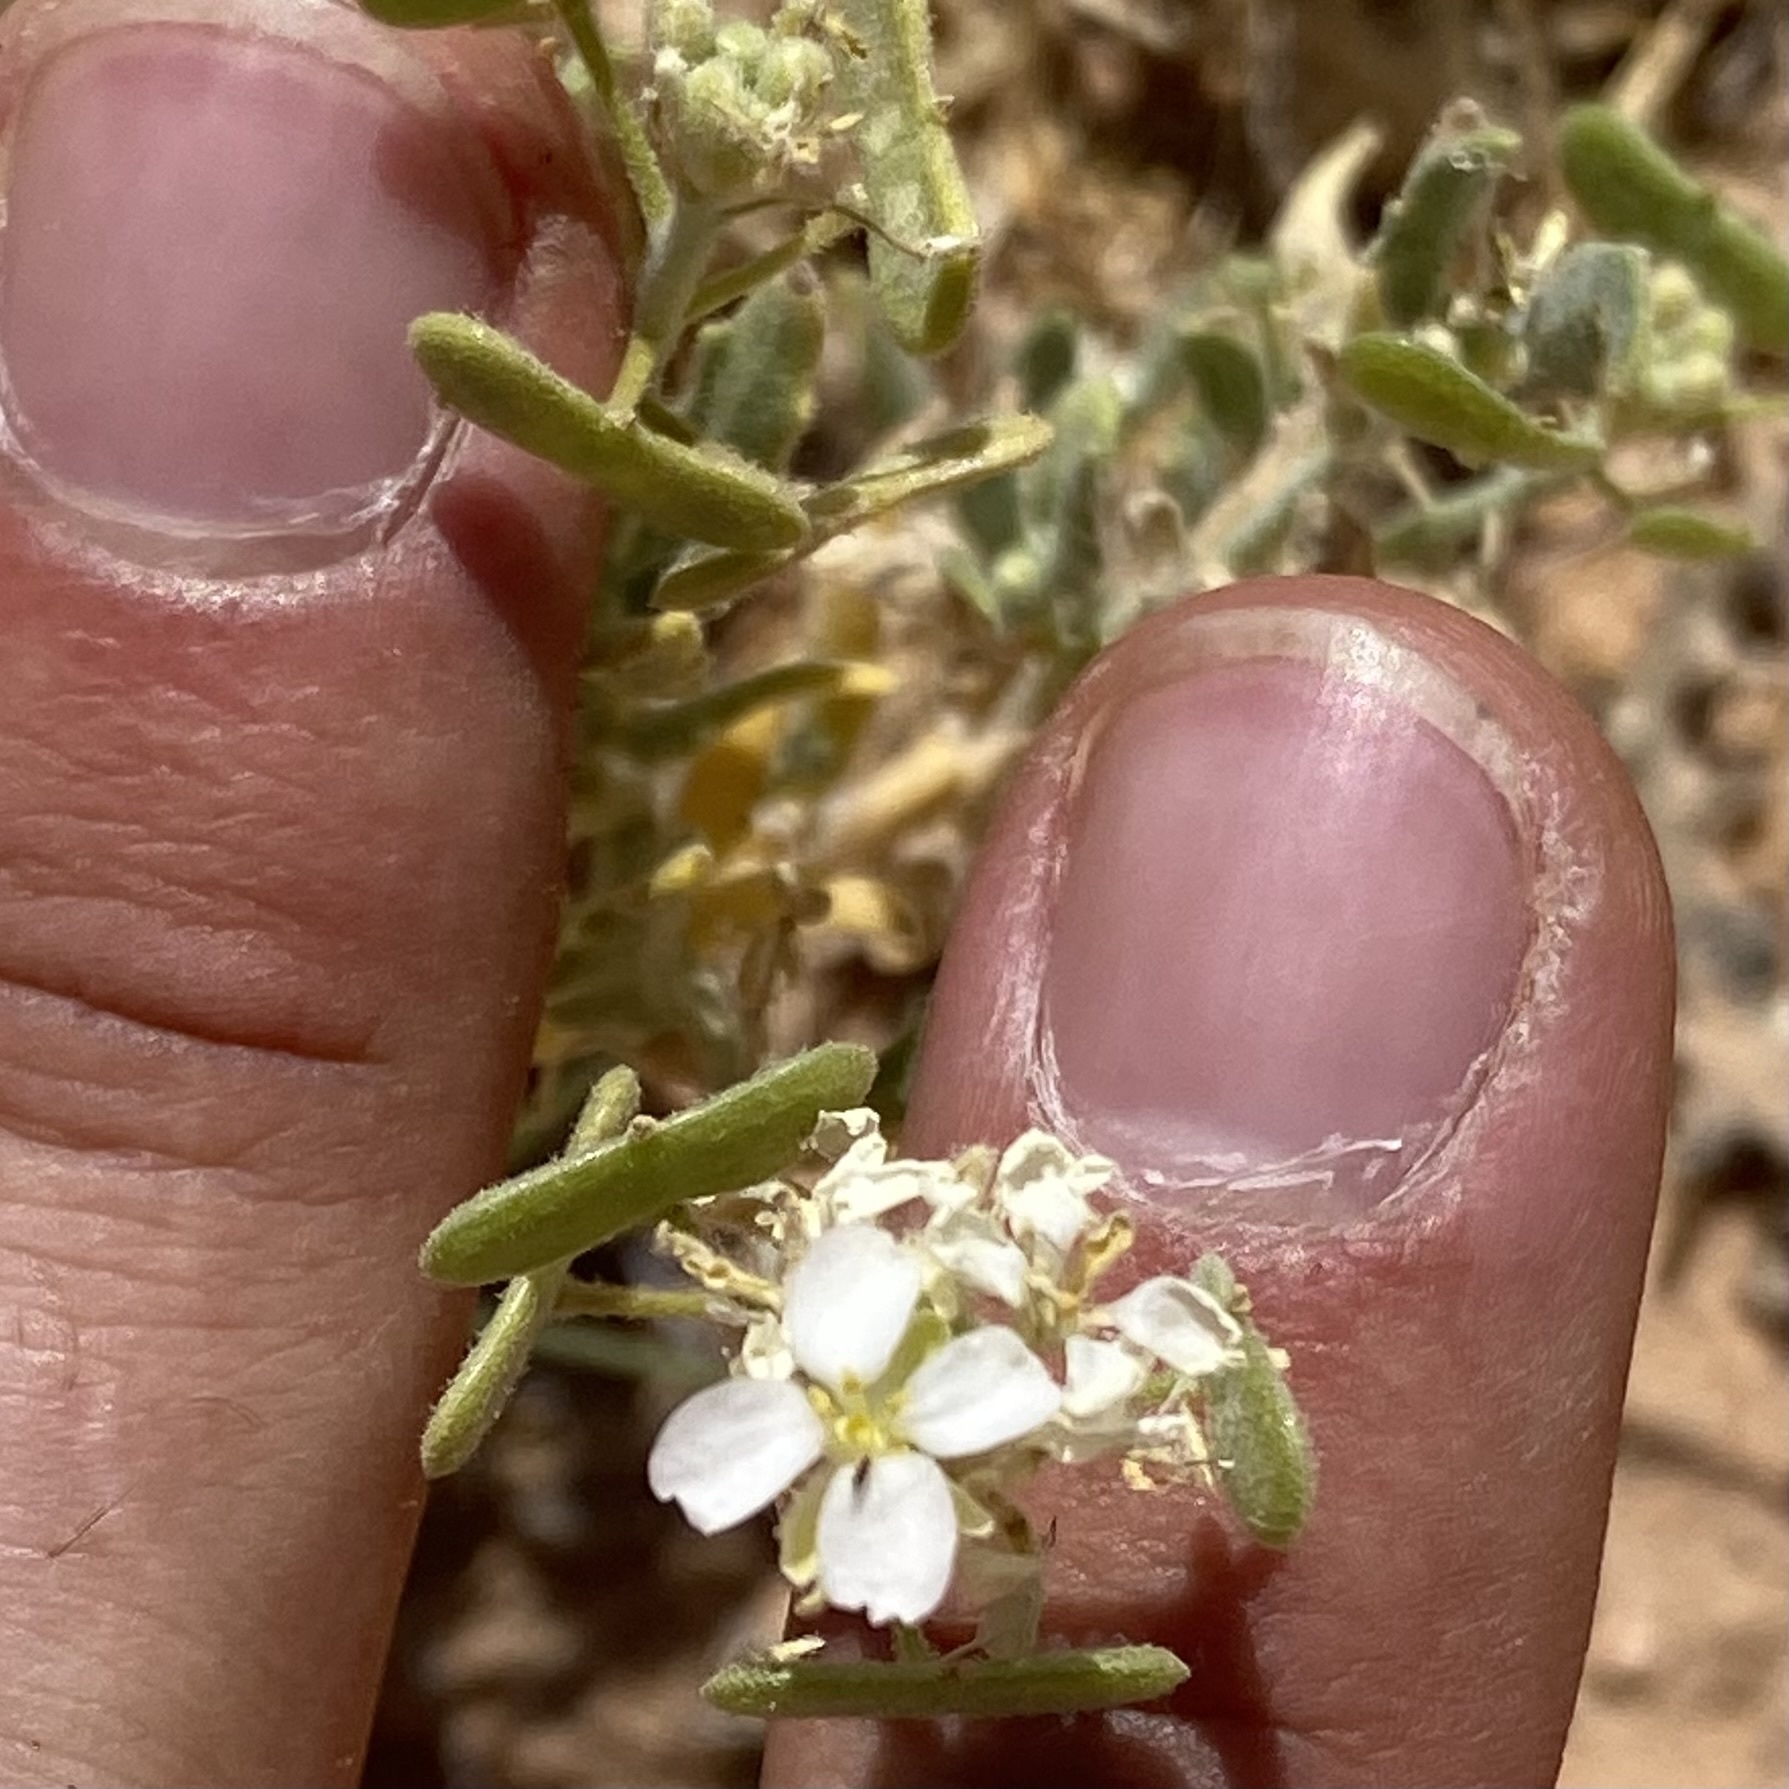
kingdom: Plantae
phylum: Tracheophyta
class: Magnoliopsida
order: Brassicales
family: Brassicaceae
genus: Dimorphocarpa
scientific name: Dimorphocarpa wislizenii
